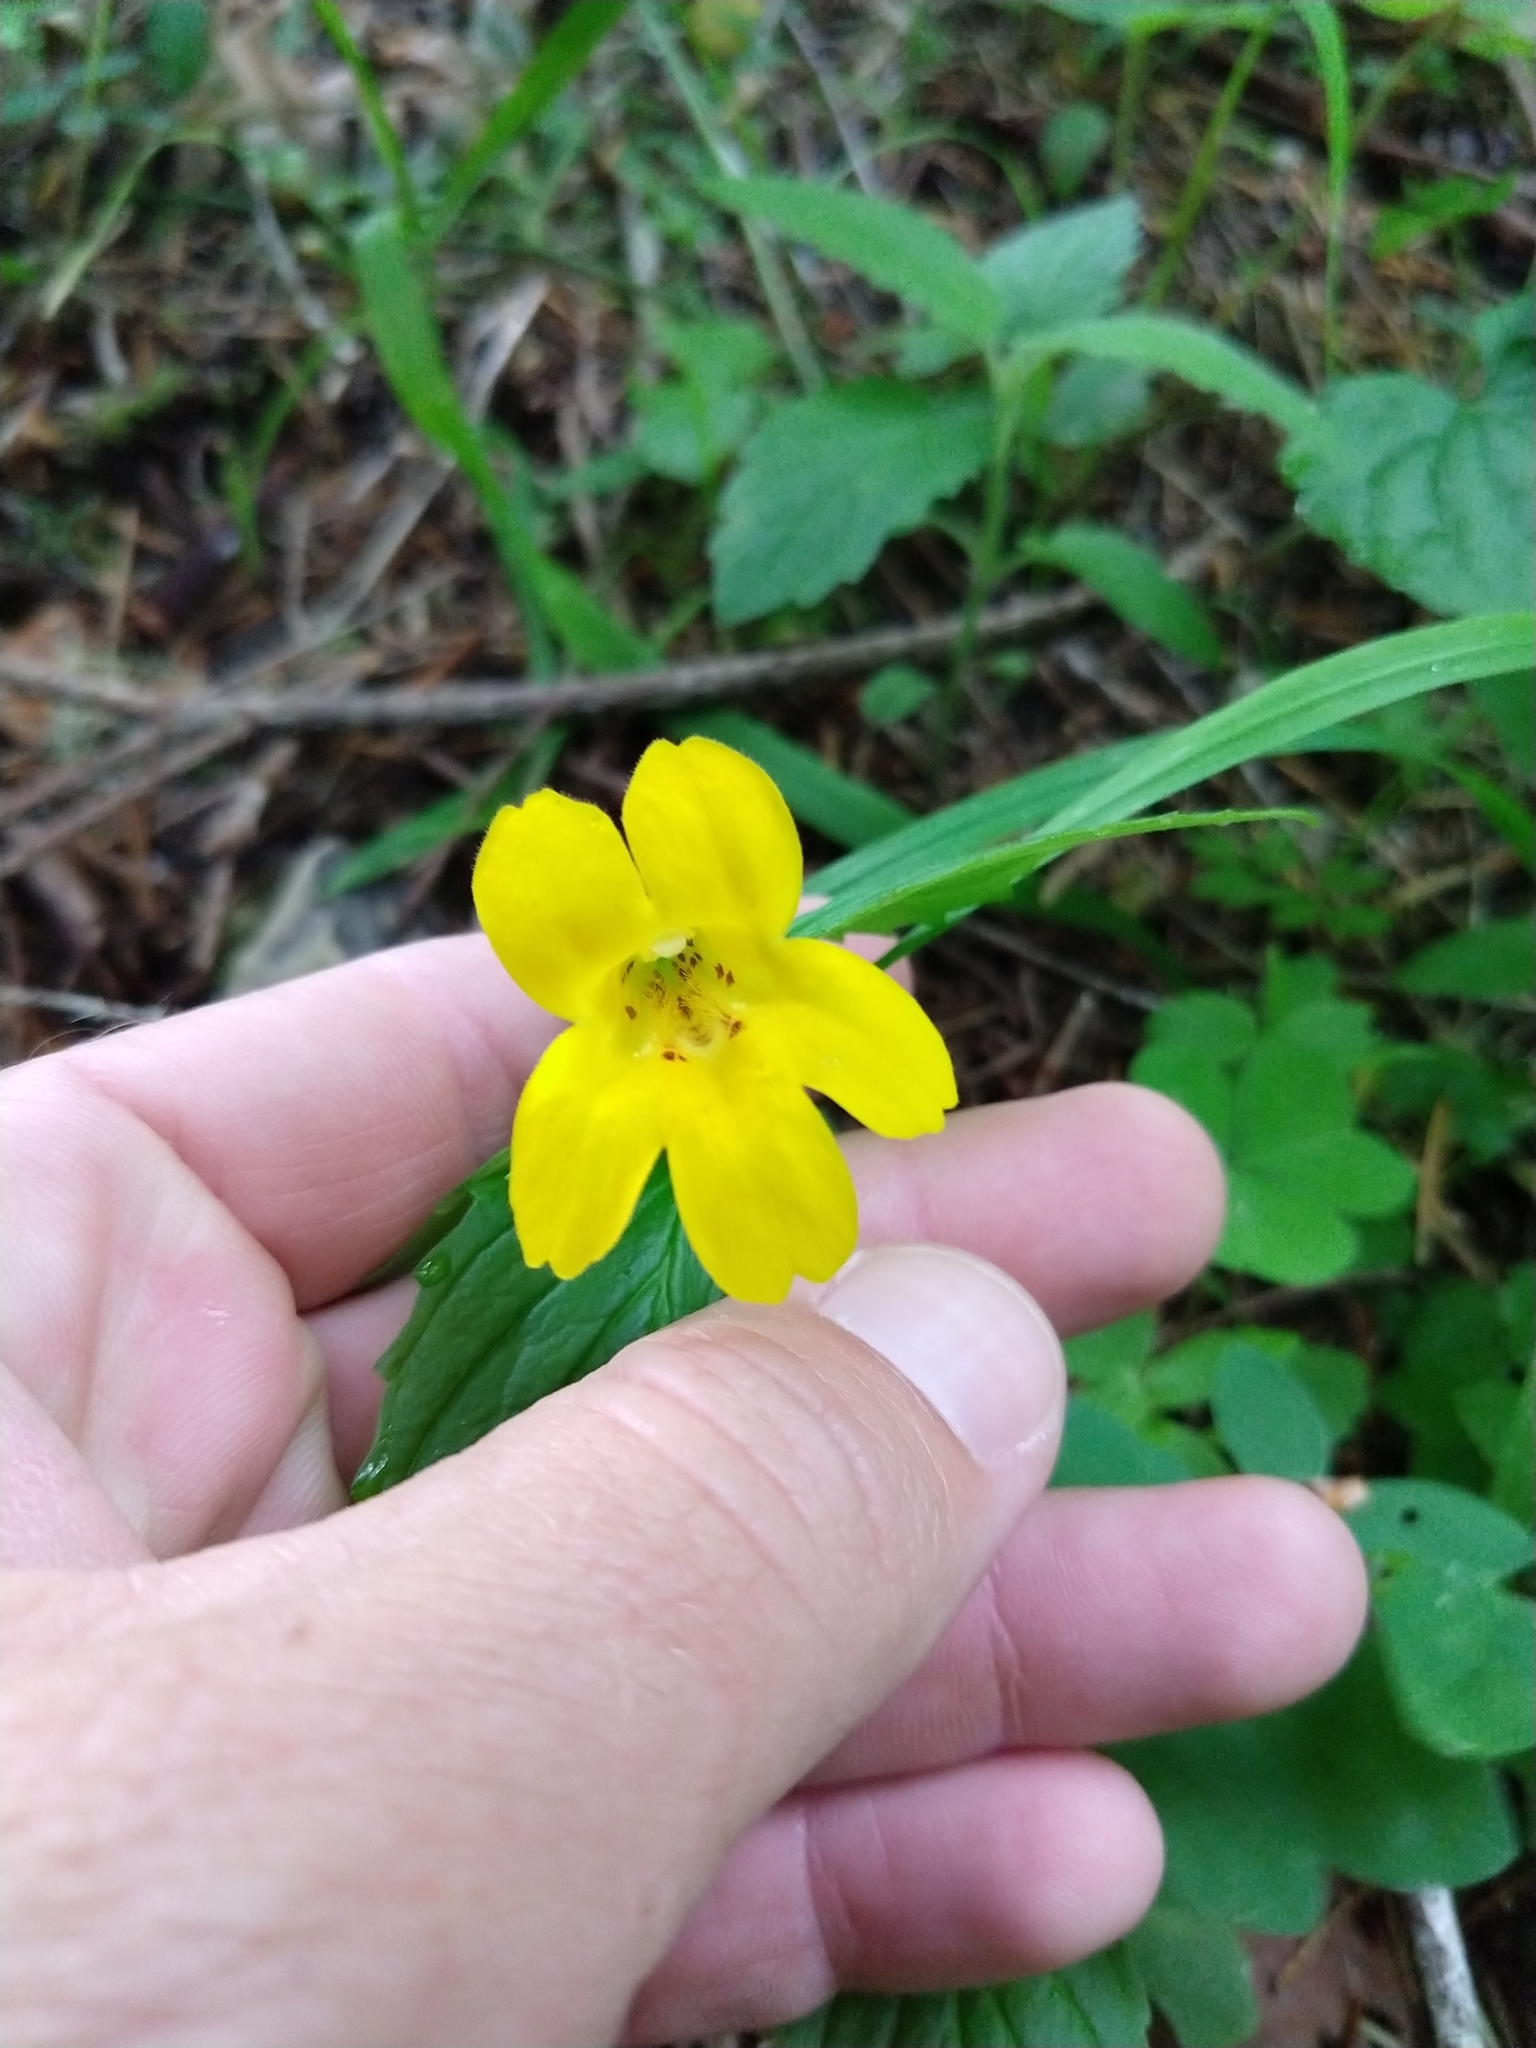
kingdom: Plantae
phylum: Tracheophyta
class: Magnoliopsida
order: Lamiales
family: Phrymaceae
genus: Erythranthe
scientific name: Erythranthe dentata
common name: Coastal monkeyflower
